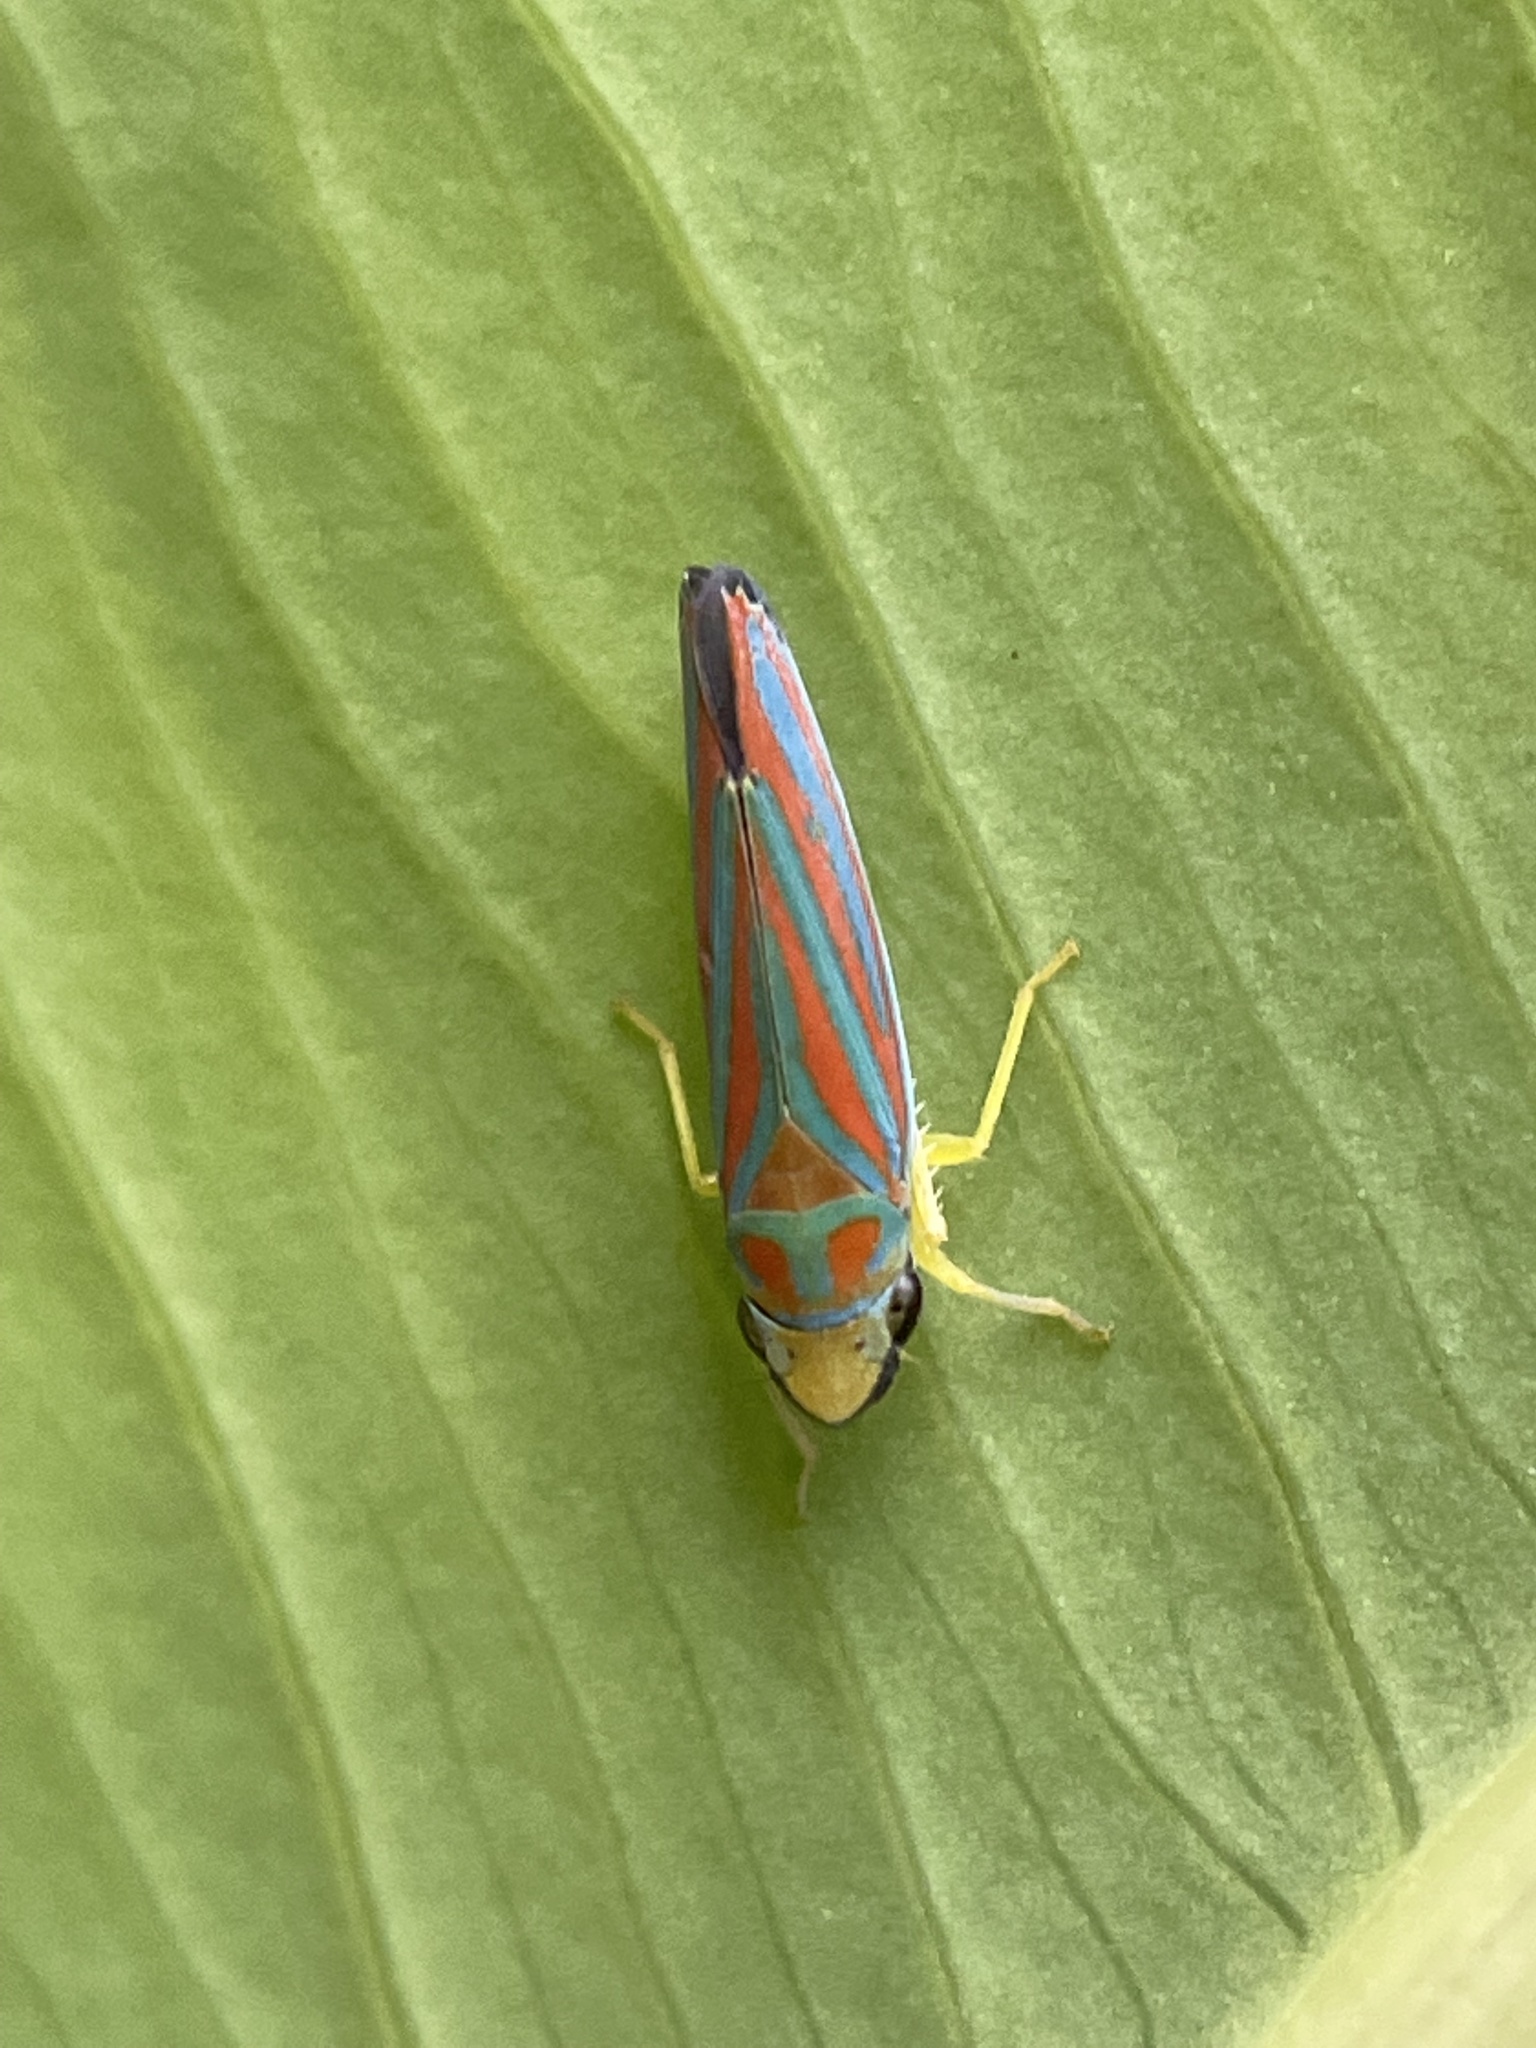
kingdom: Animalia
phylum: Arthropoda
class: Insecta
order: Hemiptera
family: Cicadellidae
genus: Graphocephala
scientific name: Graphocephala coccinea
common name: Candy-striped leafhopper
